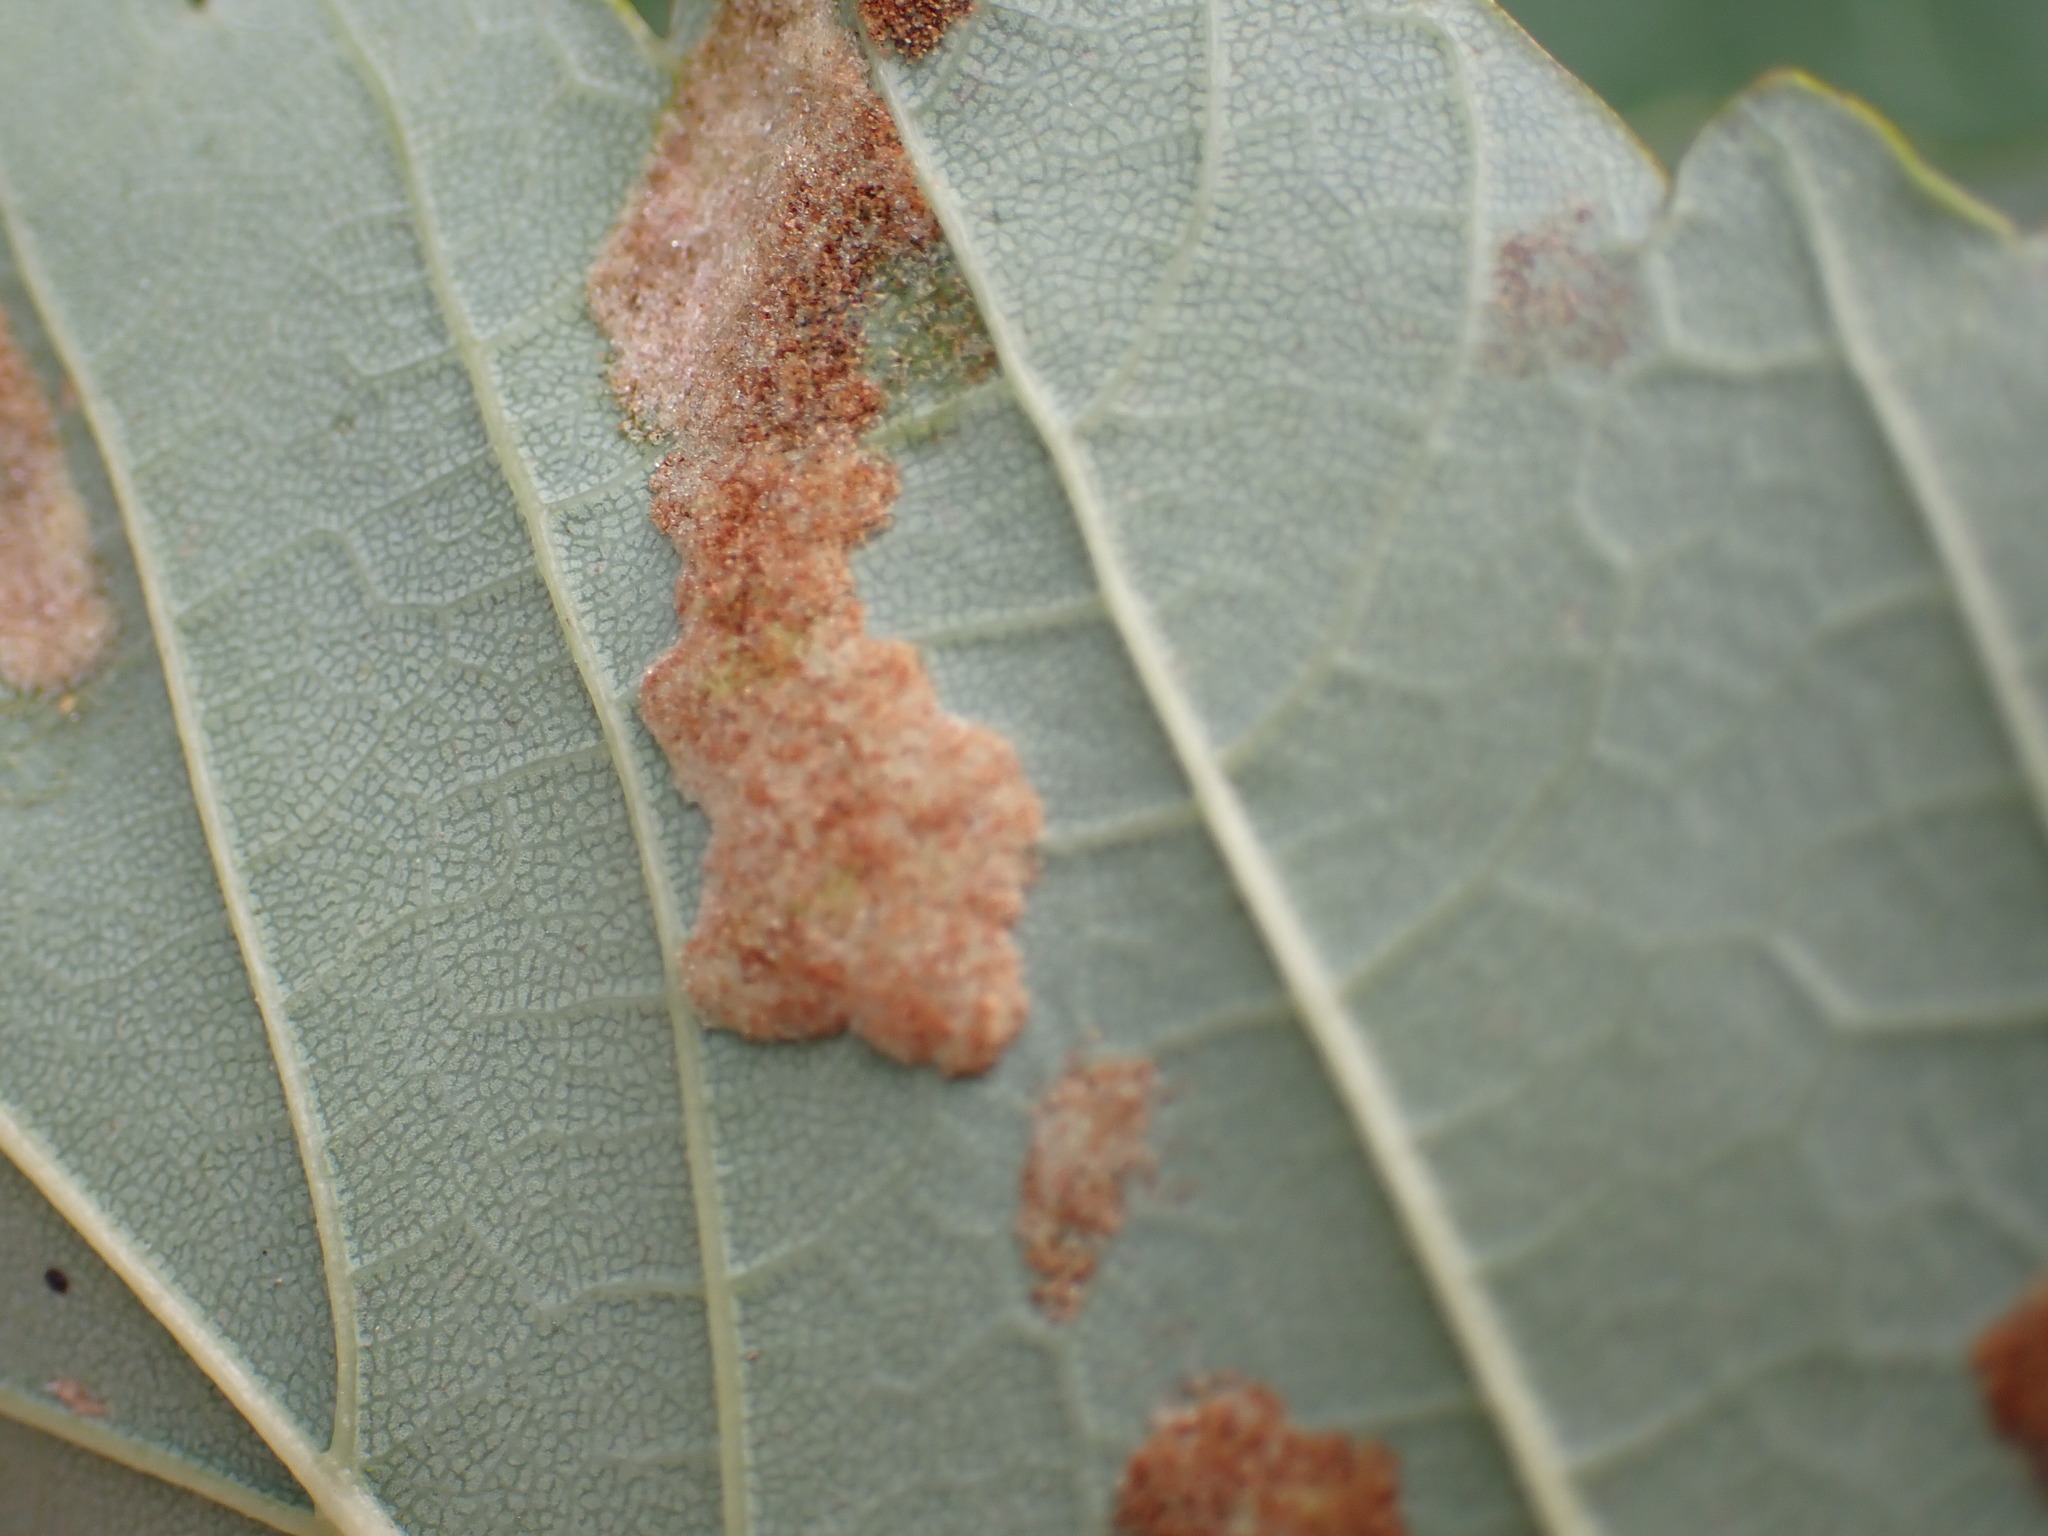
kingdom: Animalia
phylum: Arthropoda
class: Arachnida
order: Trombidiformes
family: Eriophyidae
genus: Aceria
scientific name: Aceria pseudoplatani
